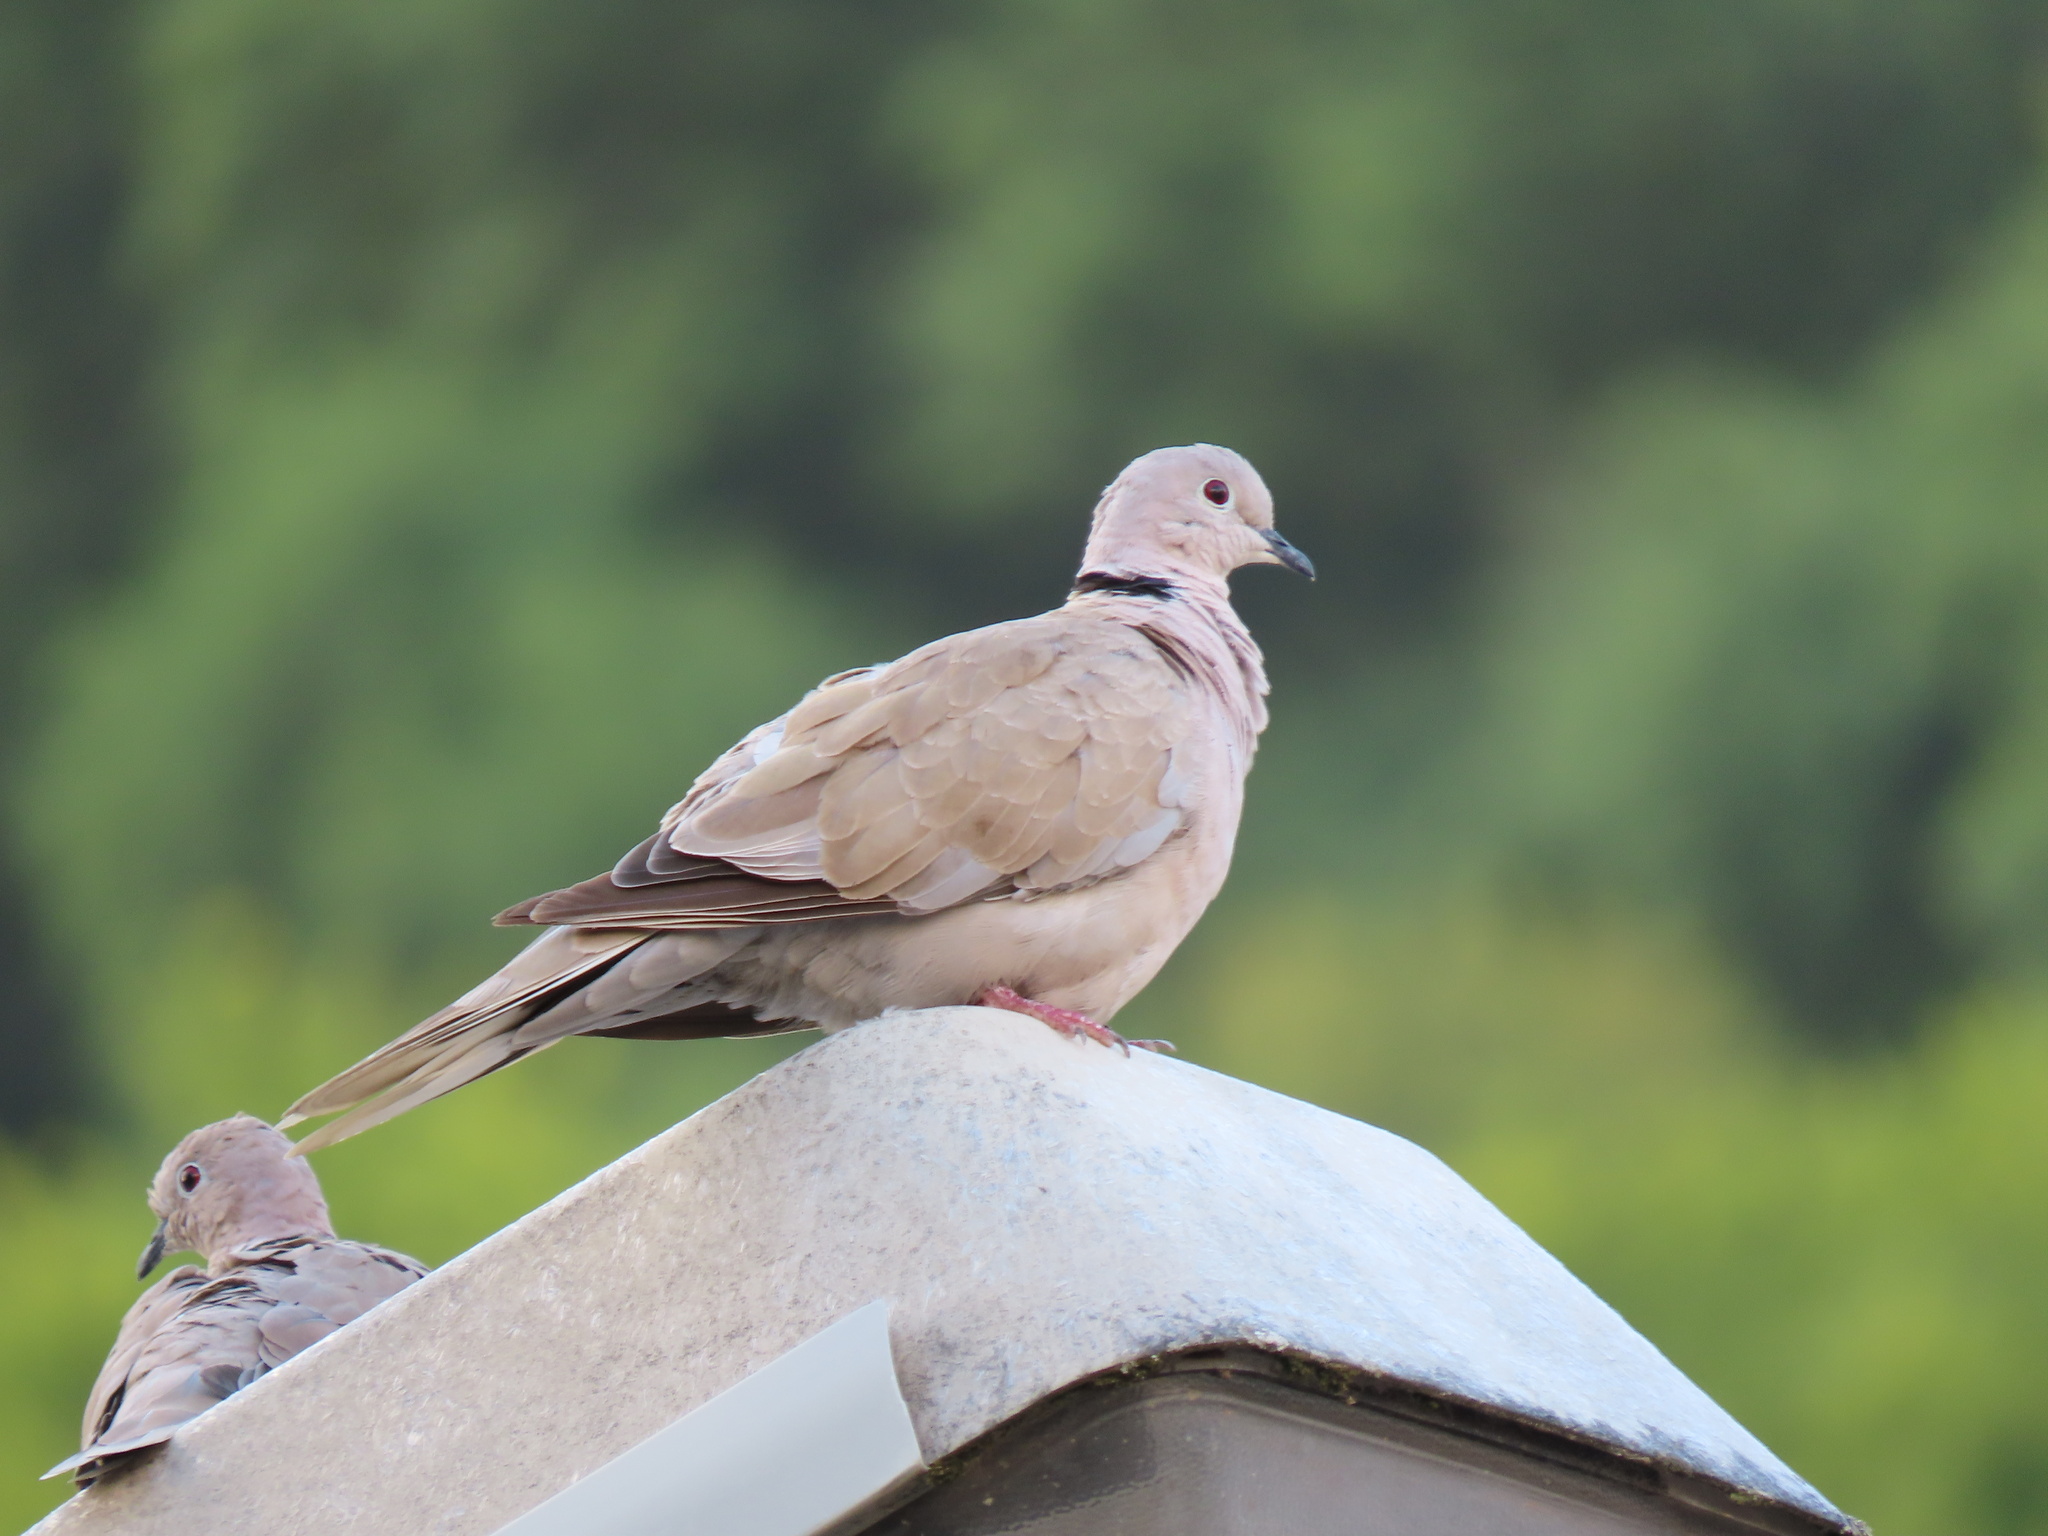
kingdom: Animalia
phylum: Chordata
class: Aves
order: Columbiformes
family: Columbidae
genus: Streptopelia
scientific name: Streptopelia decaocto
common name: Eurasian collared dove
